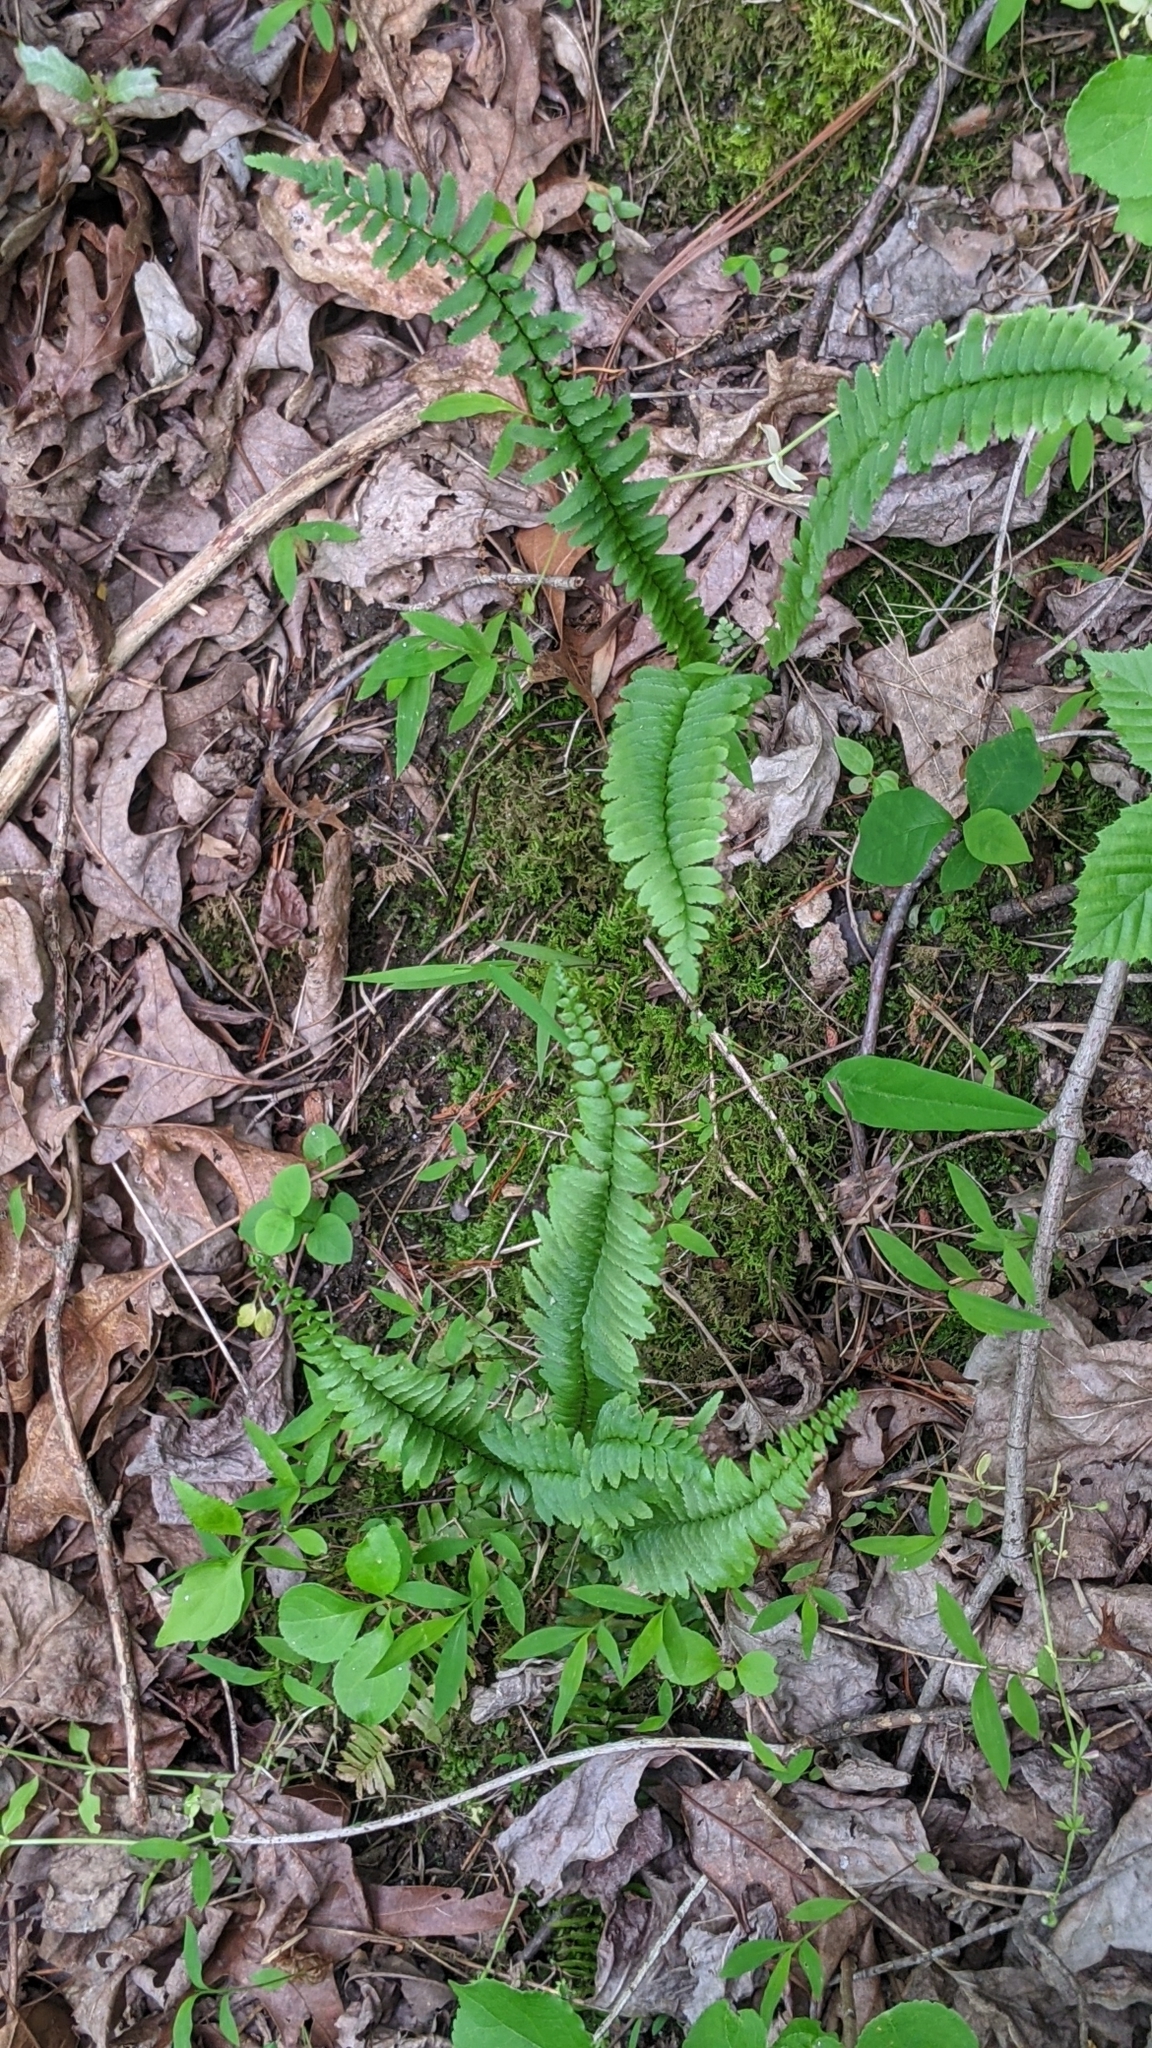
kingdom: Plantae
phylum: Tracheophyta
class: Polypodiopsida
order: Polypodiales
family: Aspleniaceae
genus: Asplenium
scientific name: Asplenium platyneuron
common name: Ebony spleenwort
